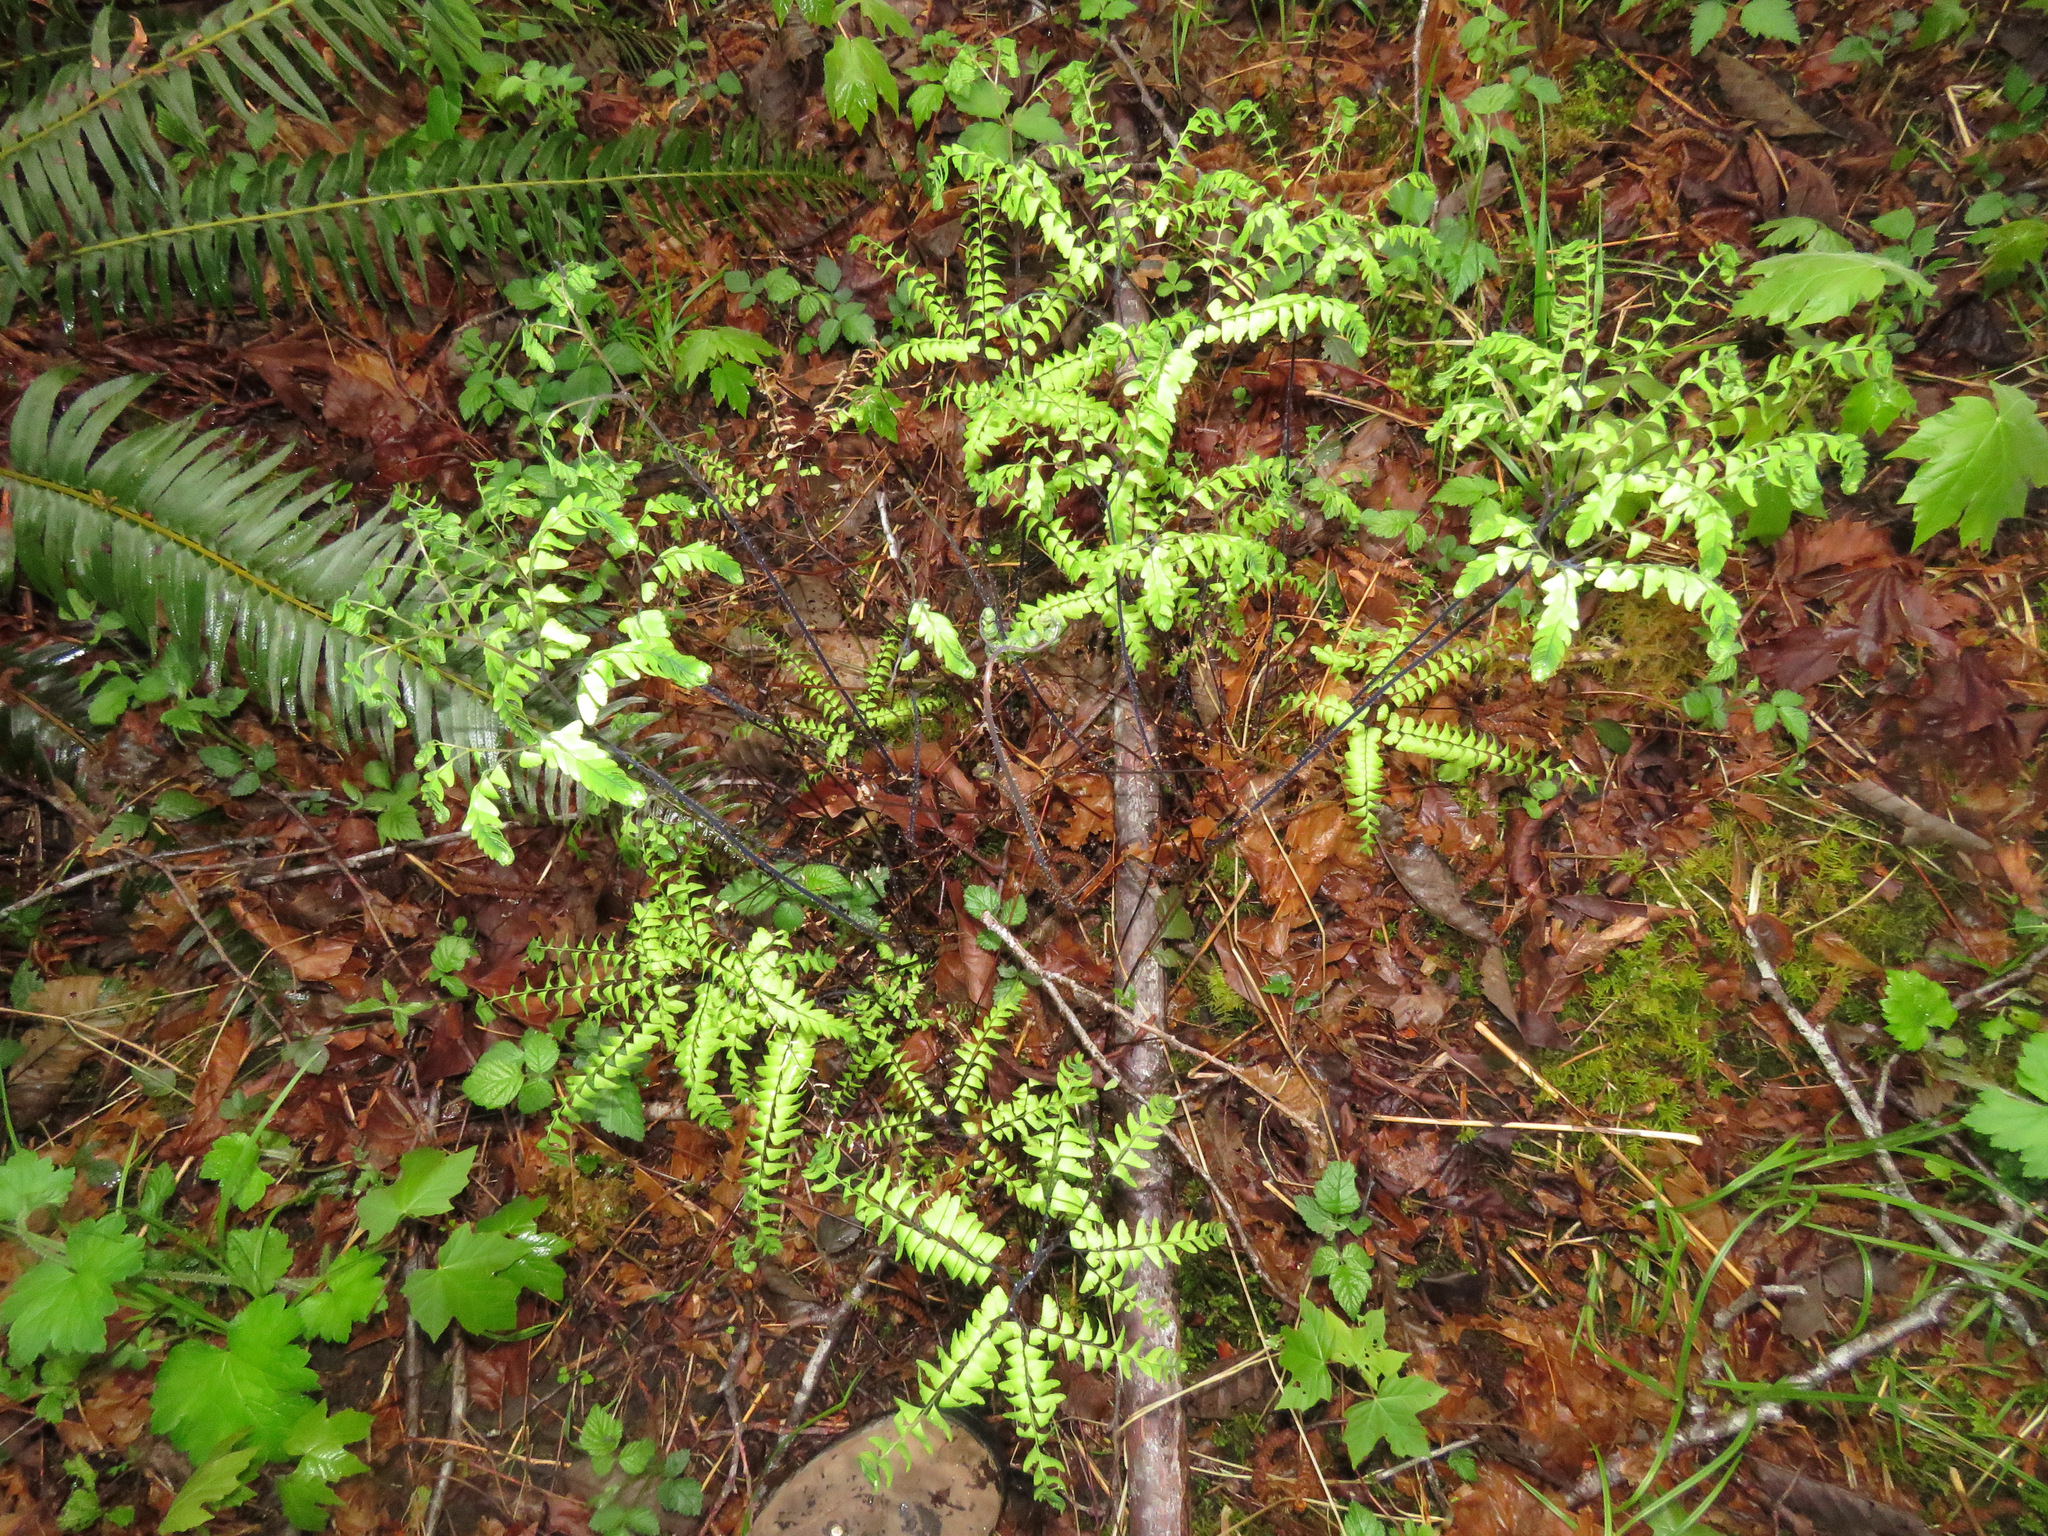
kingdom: Plantae
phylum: Tracheophyta
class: Polypodiopsida
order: Polypodiales
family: Pteridaceae
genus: Adiantum
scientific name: Adiantum aleuticum
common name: Aleutian maidenhair fern
